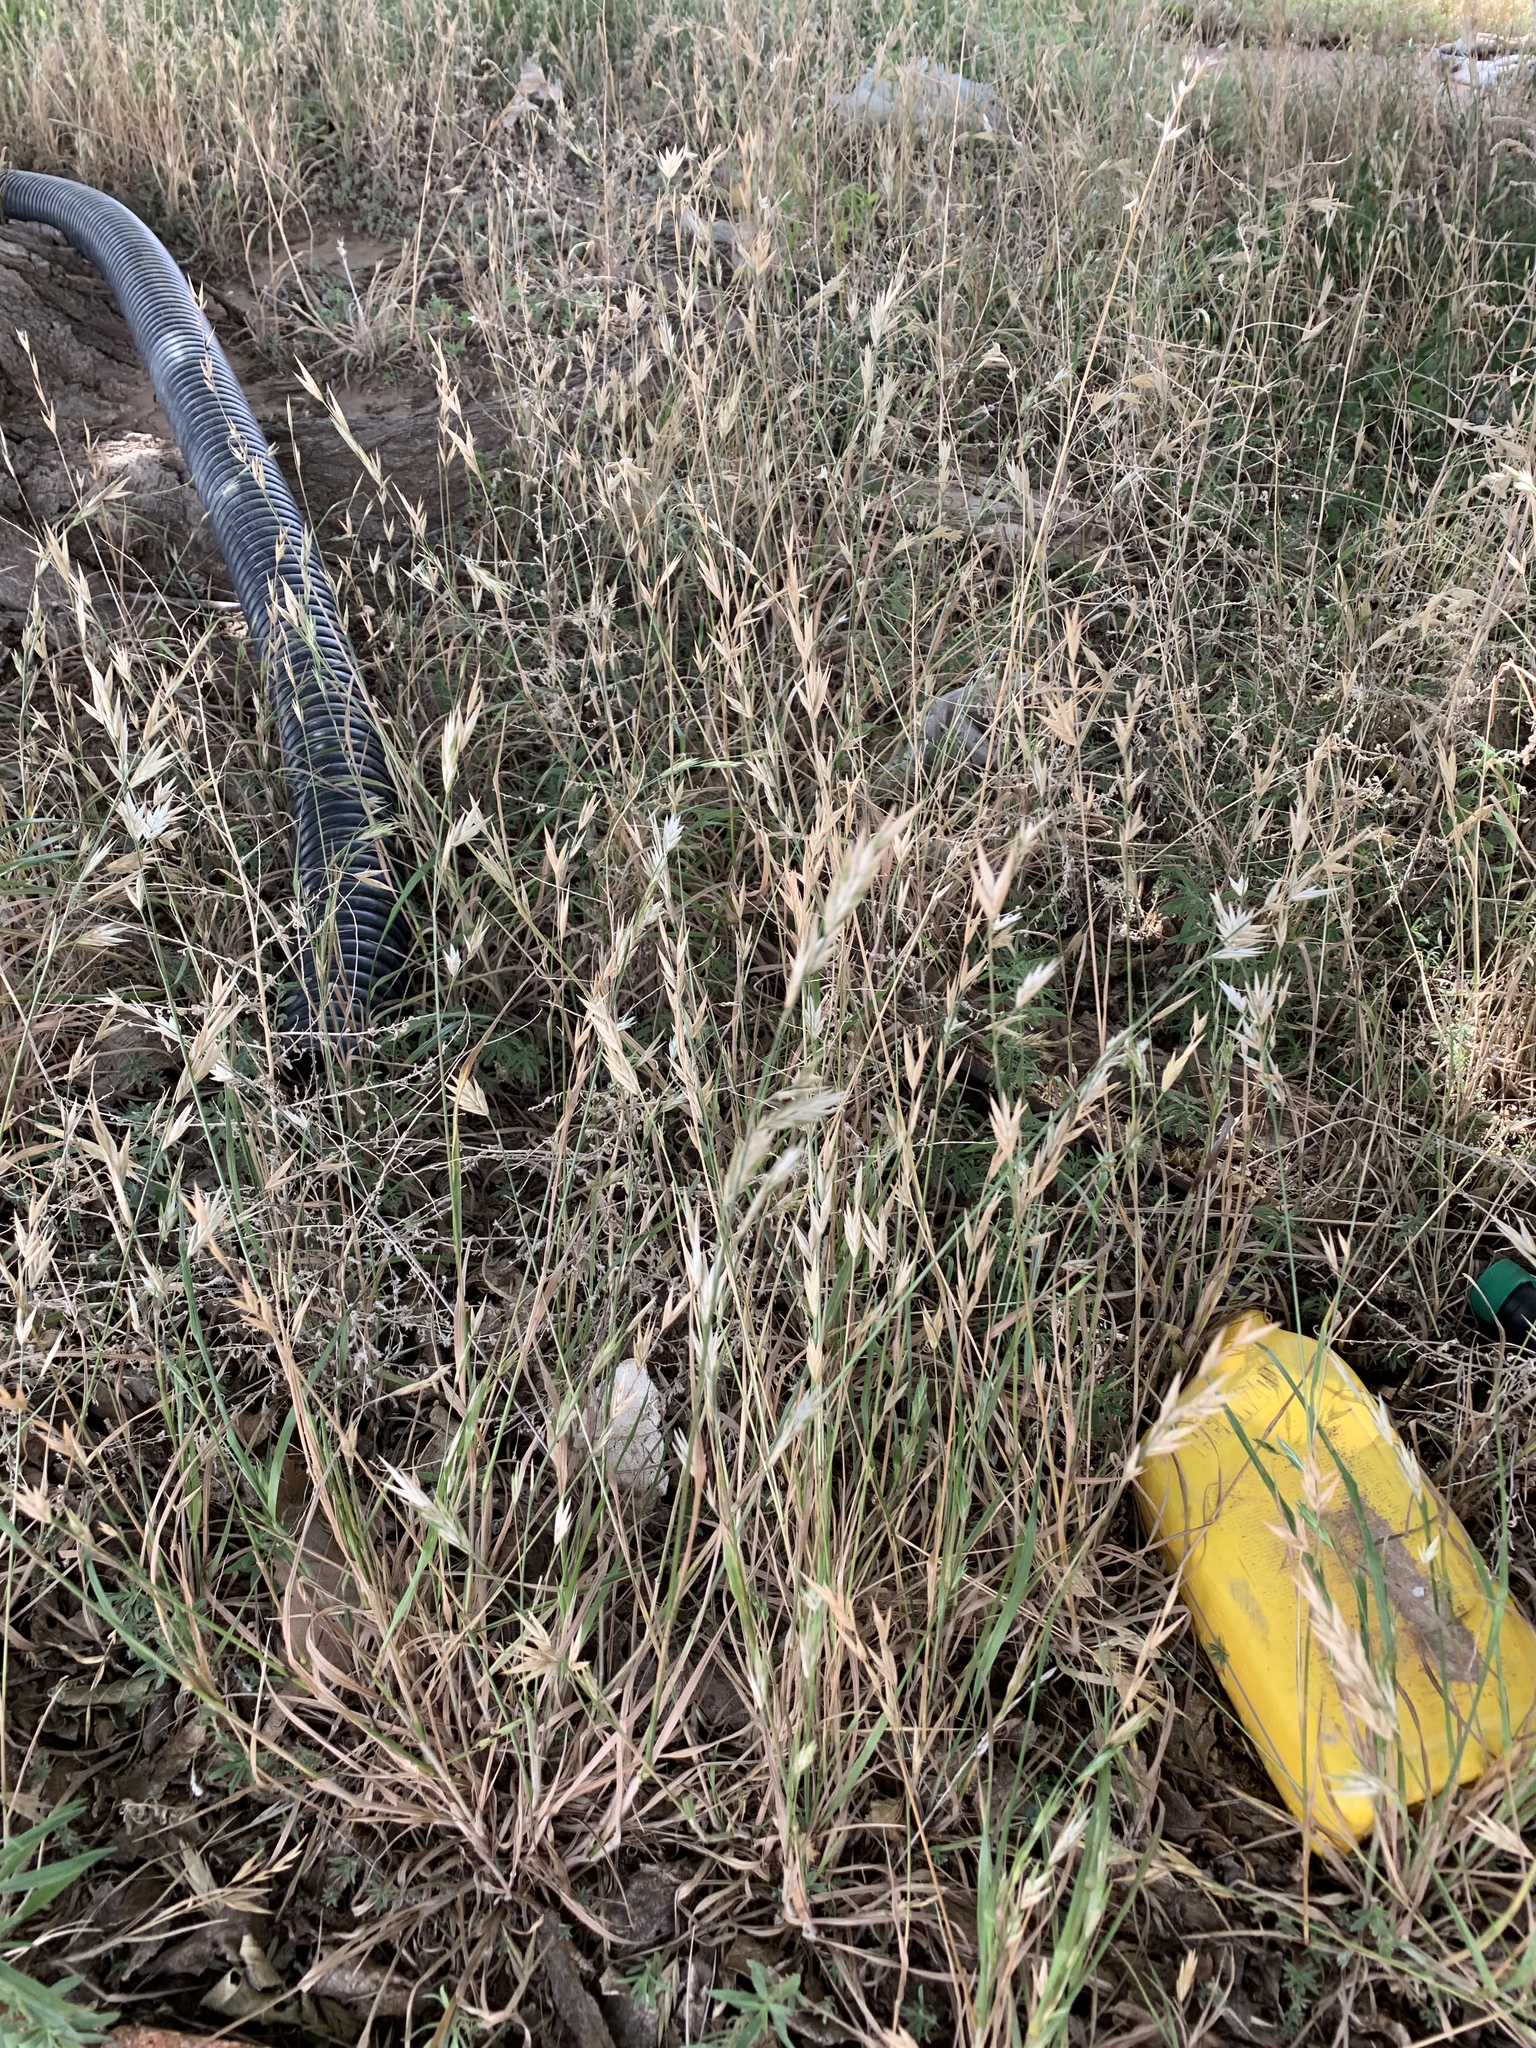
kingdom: Plantae
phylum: Tracheophyta
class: Liliopsida
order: Poales
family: Poaceae
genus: Bromus
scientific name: Bromus catharticus
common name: Rescuegrass
